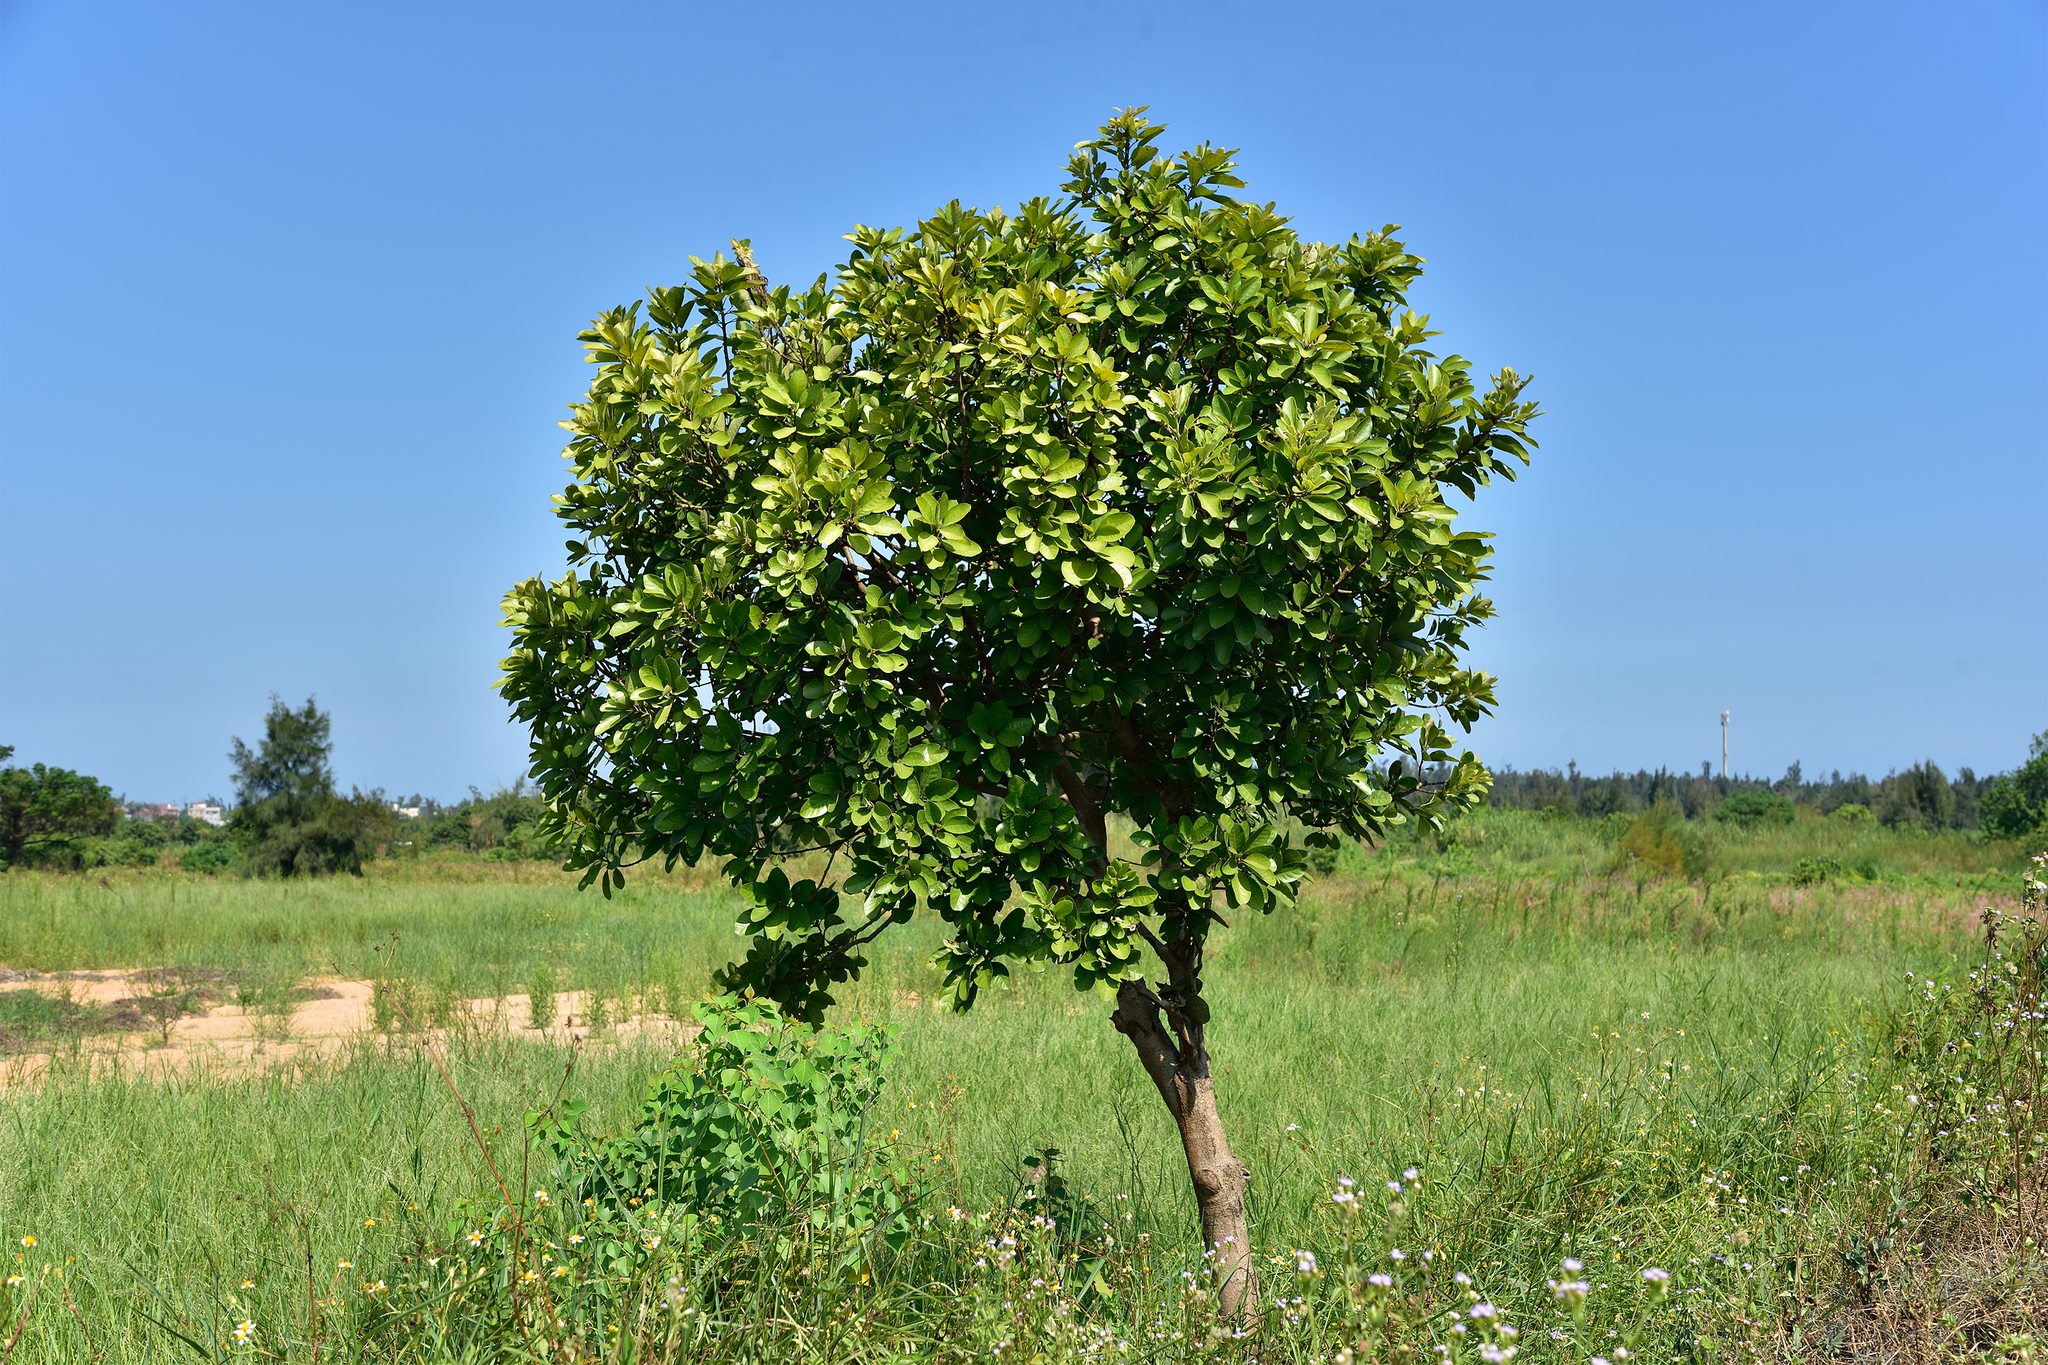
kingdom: Plantae
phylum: Tracheophyta
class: Magnoliopsida
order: Laurales
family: Lauraceae
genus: Litsea
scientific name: Litsea glutinosa
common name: Indian-laurel
